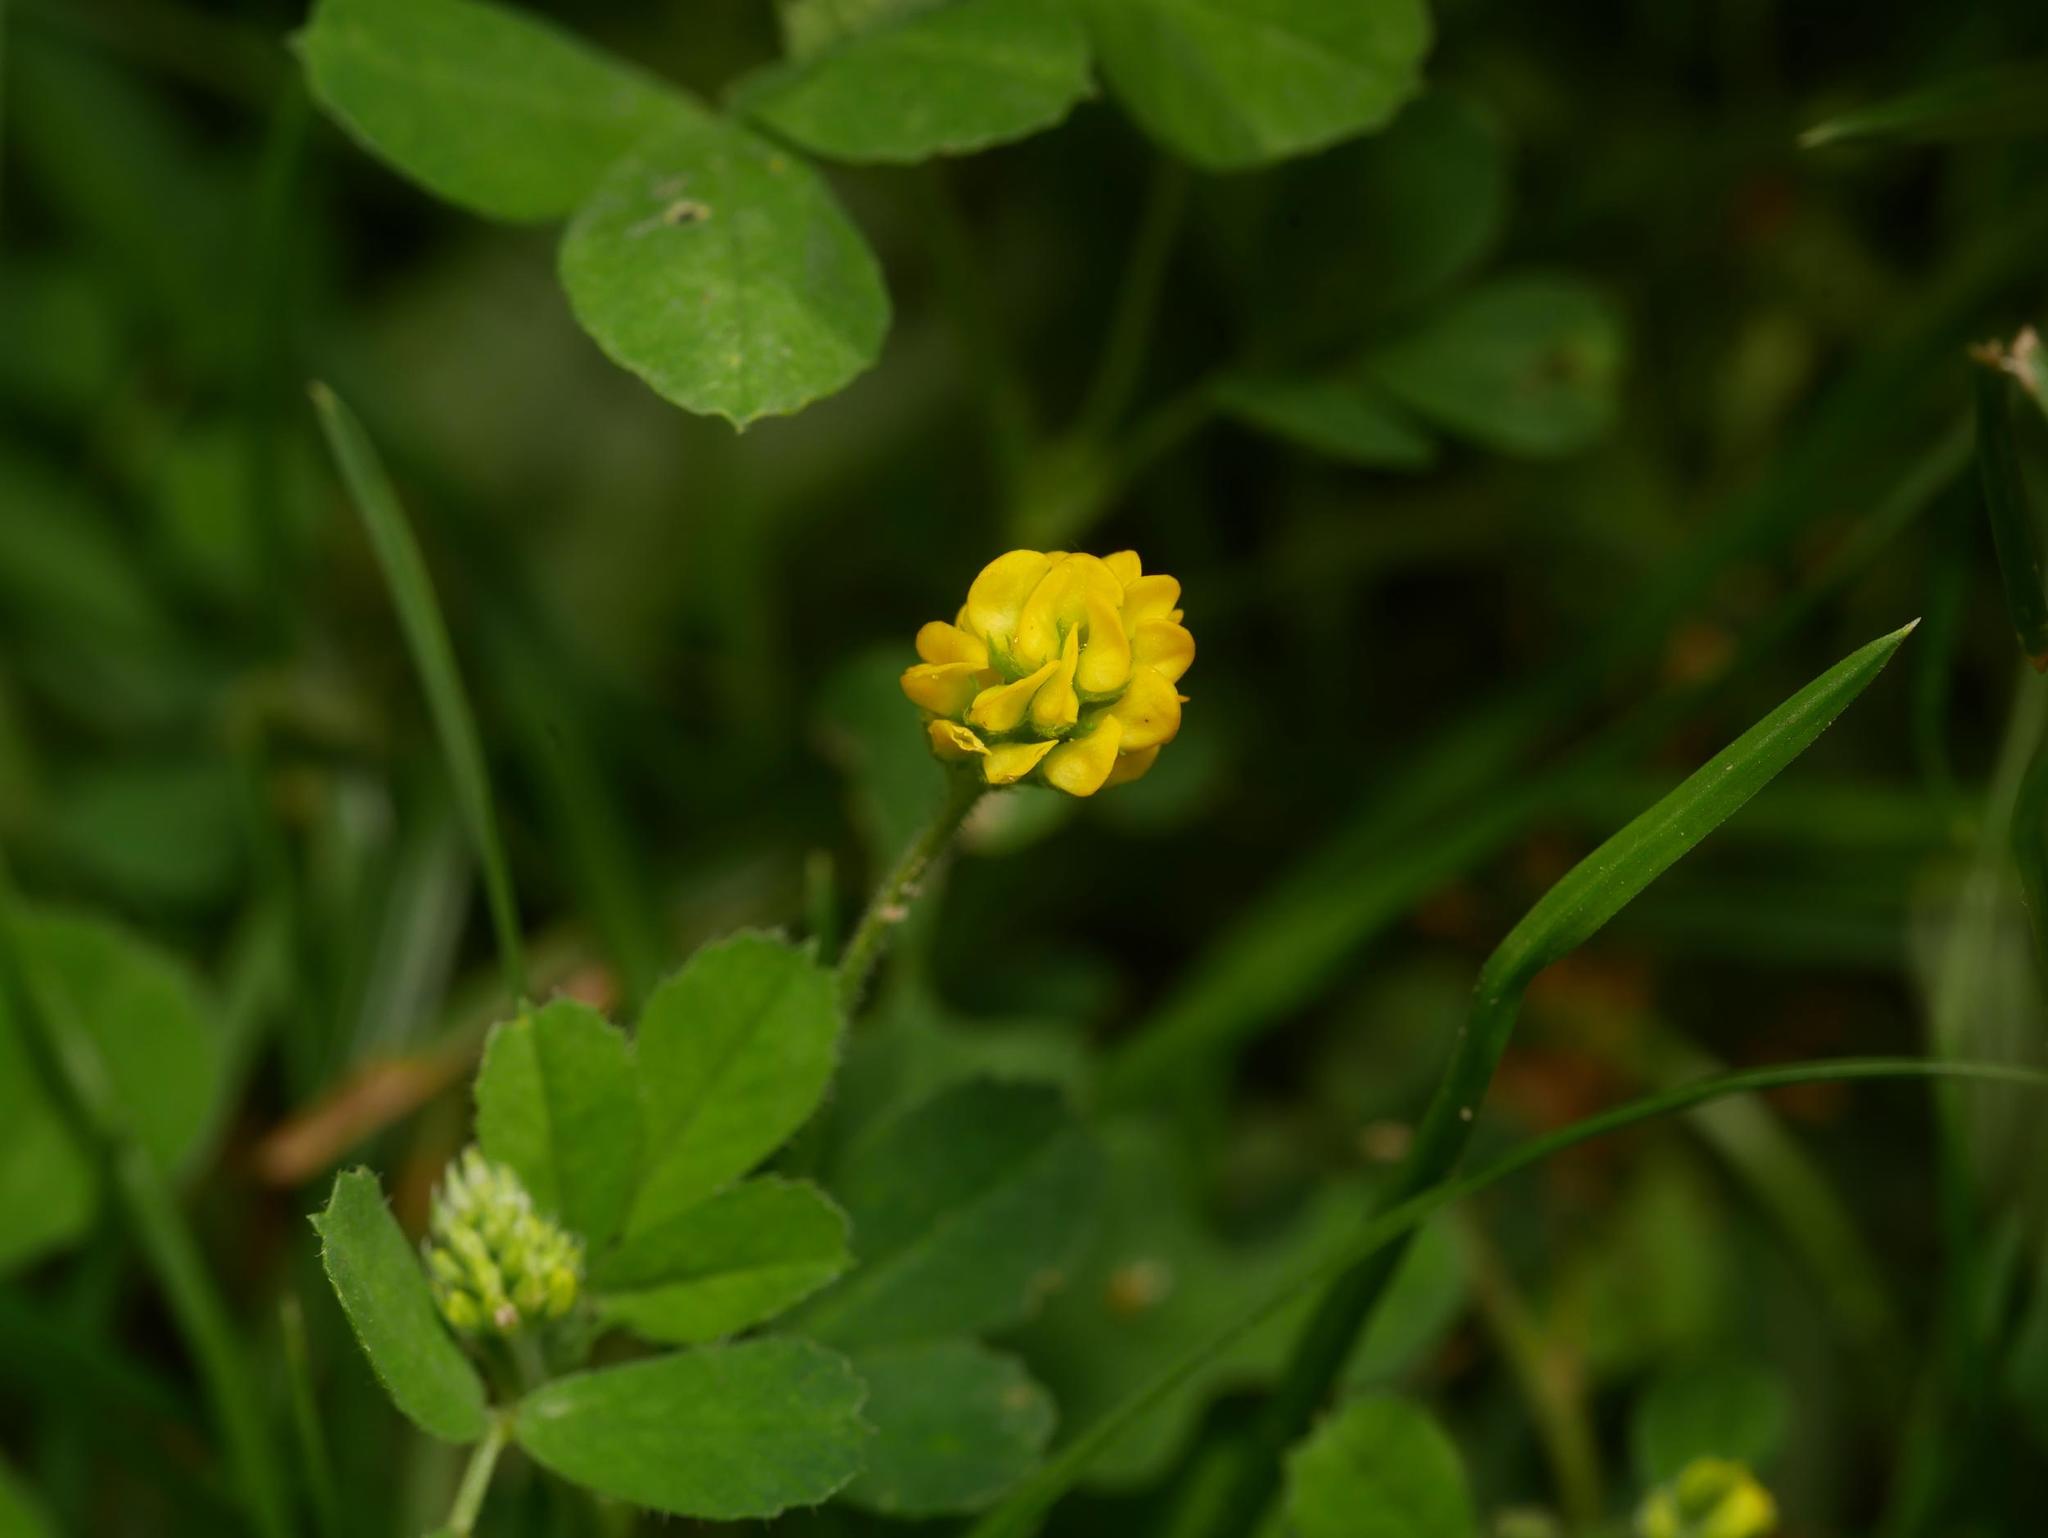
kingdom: Plantae
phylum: Tracheophyta
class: Magnoliopsida
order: Fabales
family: Fabaceae
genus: Medicago
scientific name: Medicago lupulina
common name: Black medick
